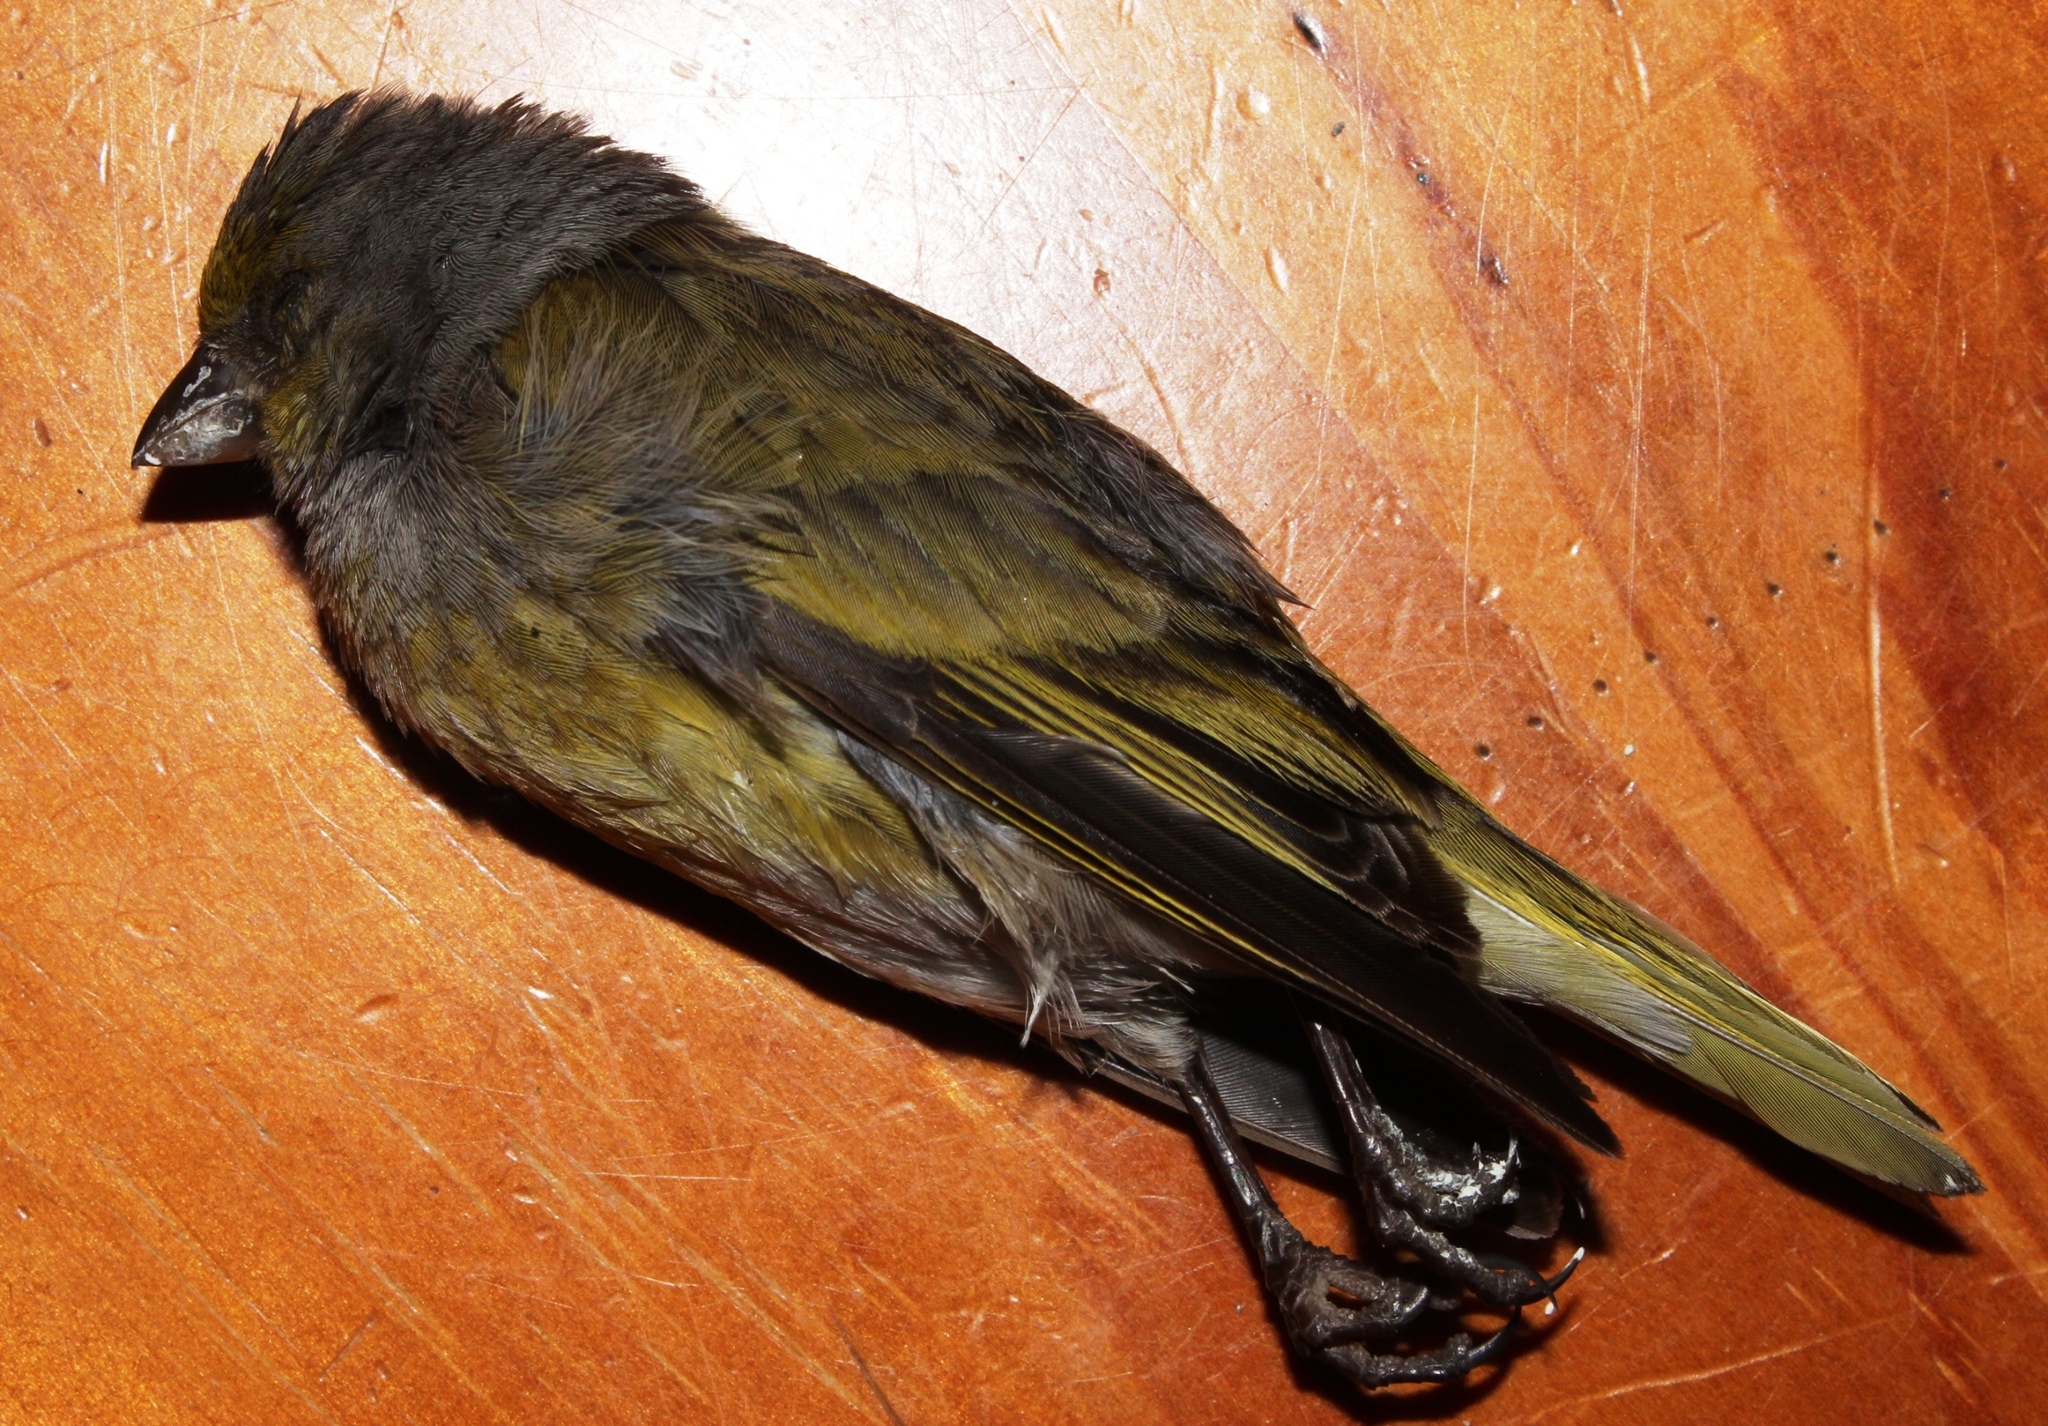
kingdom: Animalia
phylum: Chordata
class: Aves
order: Passeriformes
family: Fringillidae
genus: Serinus
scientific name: Serinus canicollis
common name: Cape canary
